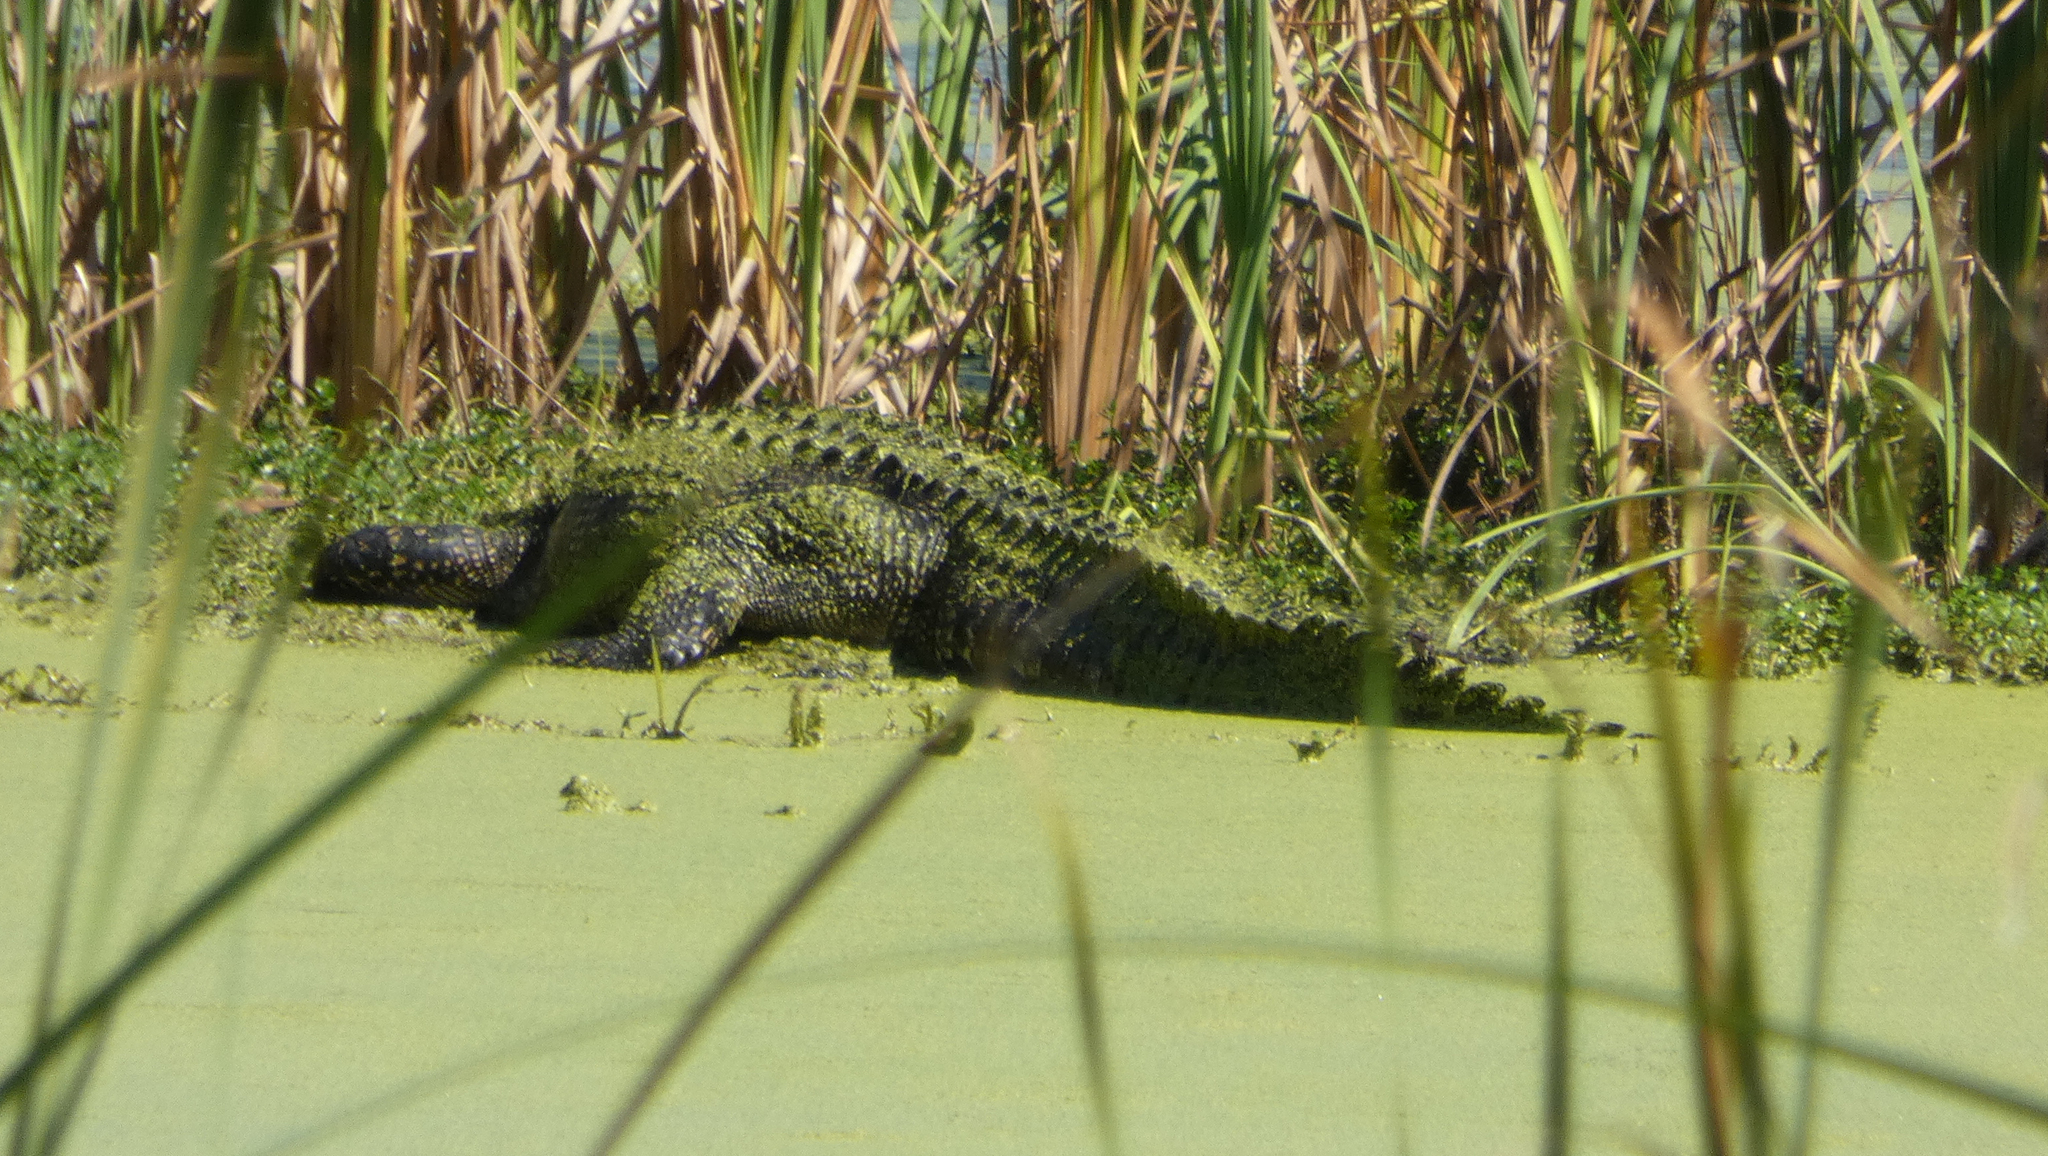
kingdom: Animalia
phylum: Chordata
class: Crocodylia
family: Alligatoridae
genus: Alligator
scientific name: Alligator mississippiensis
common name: American alligator
